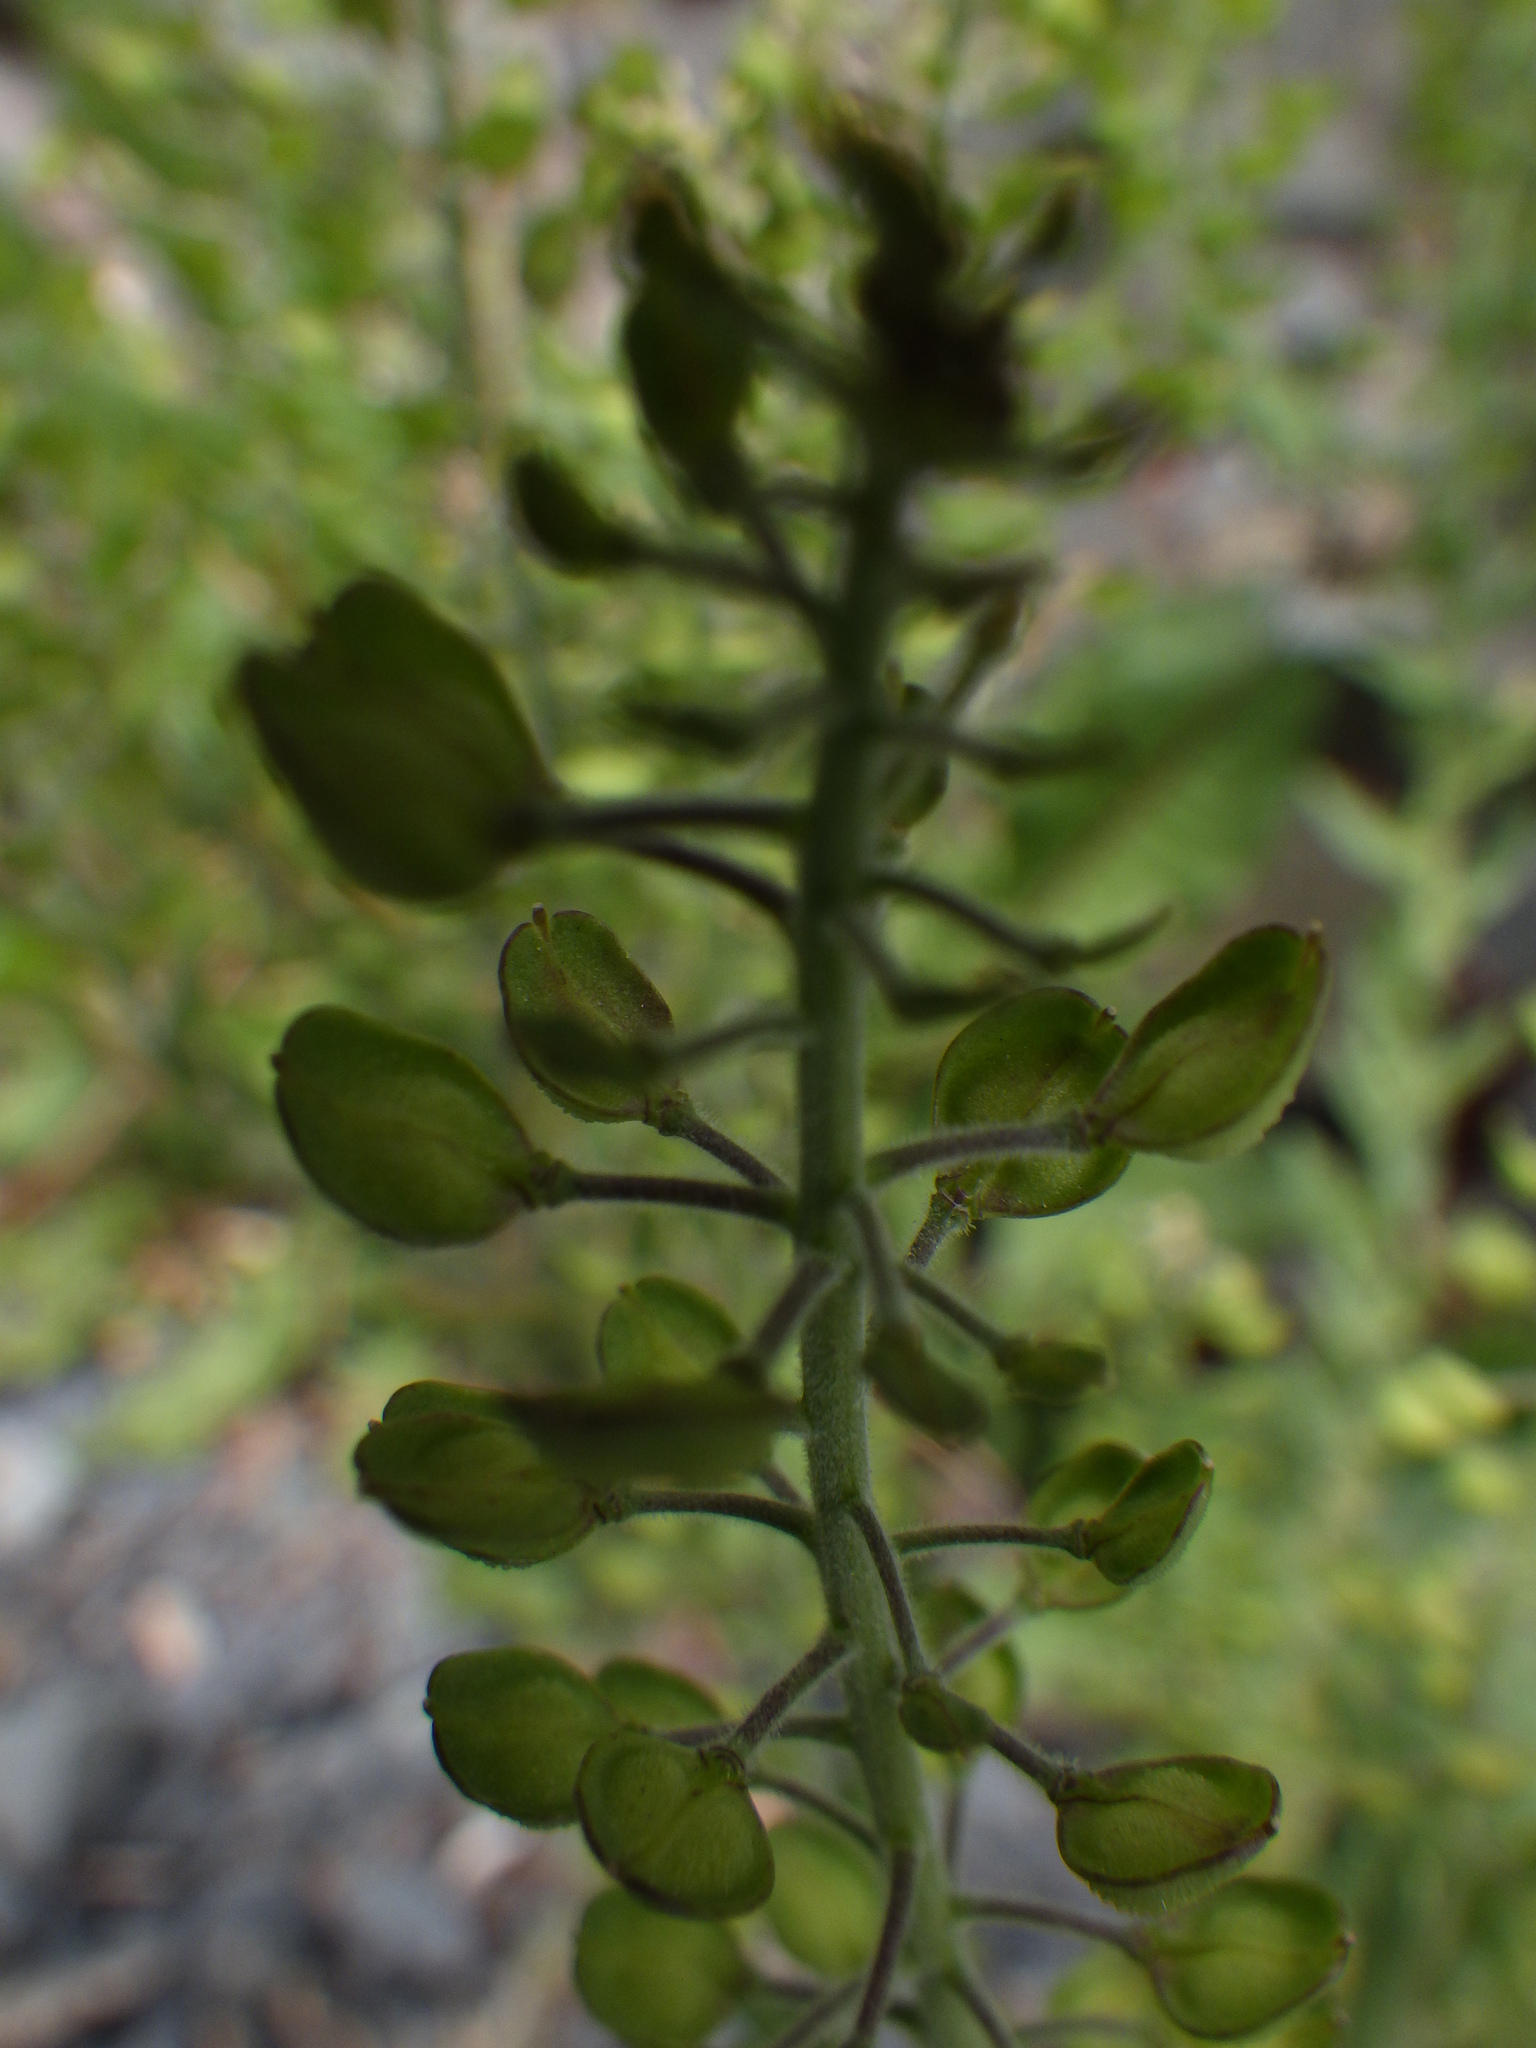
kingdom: Plantae
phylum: Tracheophyta
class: Magnoliopsida
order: Brassicales
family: Brassicaceae
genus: Lepidium
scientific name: Lepidium campestre
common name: Field pepperwort
